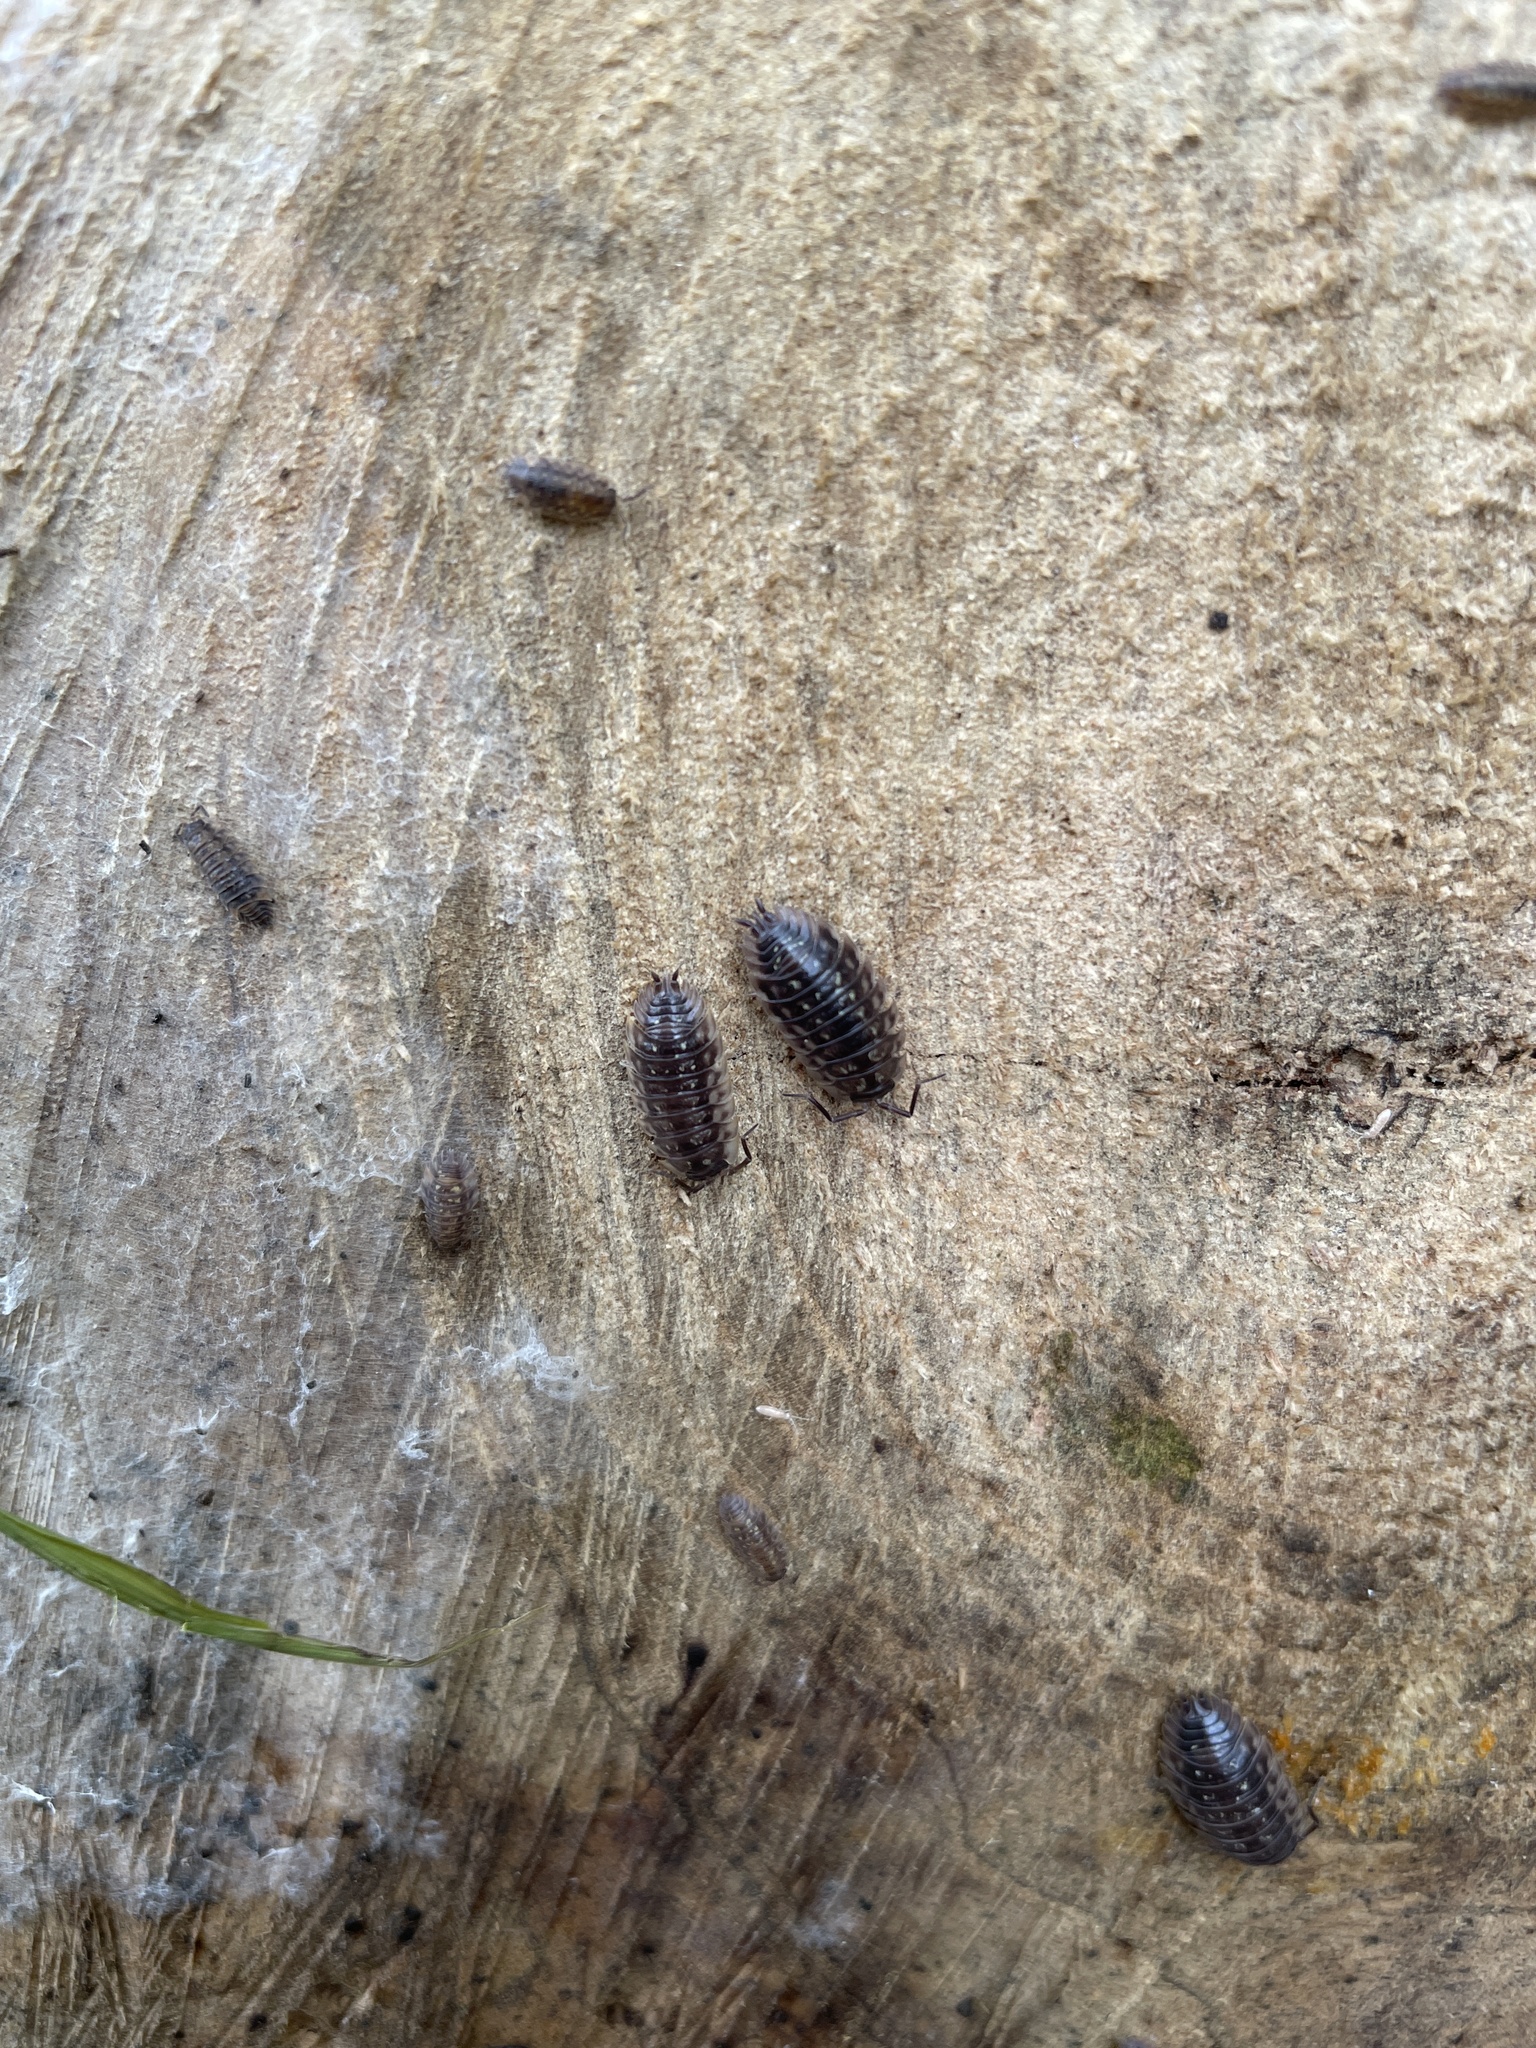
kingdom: Animalia
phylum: Arthropoda
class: Malacostraca
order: Isopoda
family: Oniscidae
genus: Oniscus
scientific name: Oniscus asellus
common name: Common shiny woodlouse
